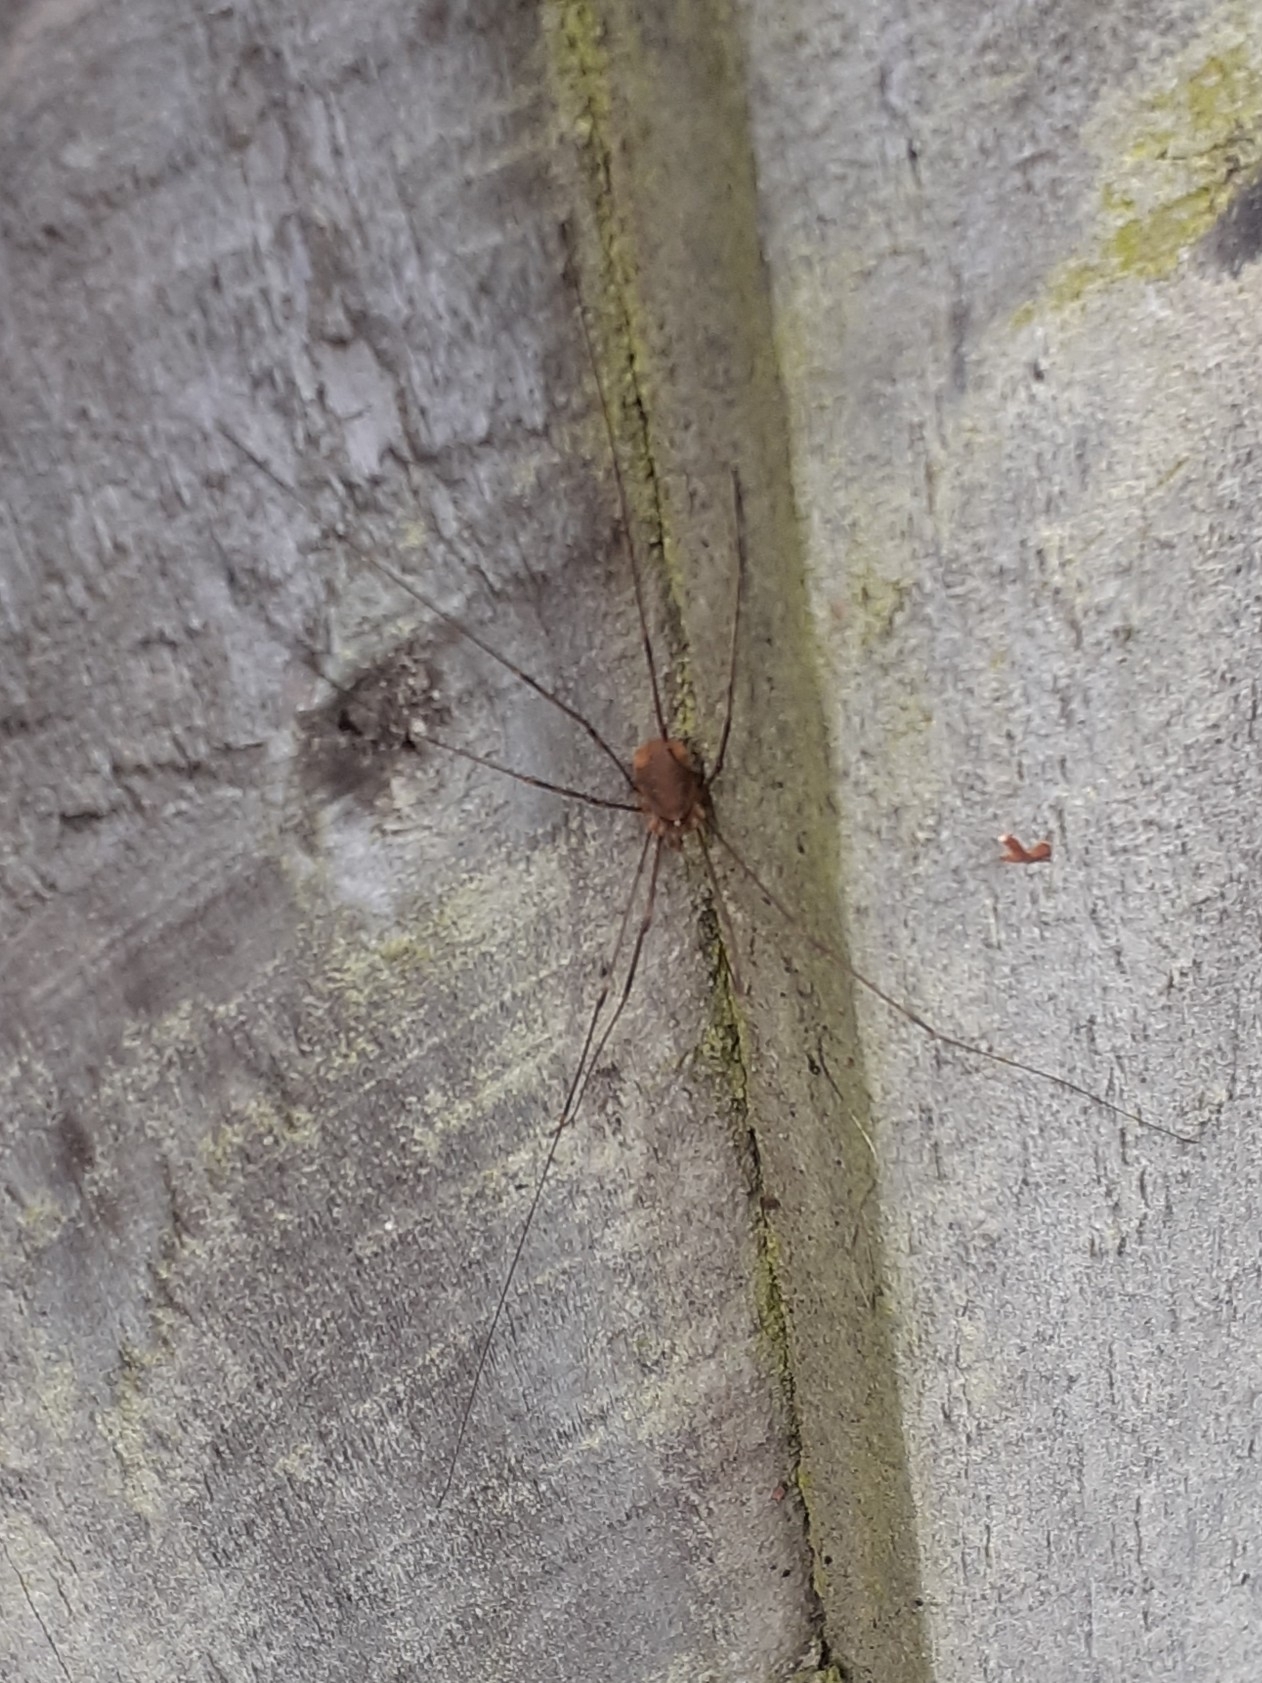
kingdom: Animalia
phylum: Arthropoda
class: Arachnida
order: Opiliones
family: Phalangiidae
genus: Opilio
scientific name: Opilio canestrinii
